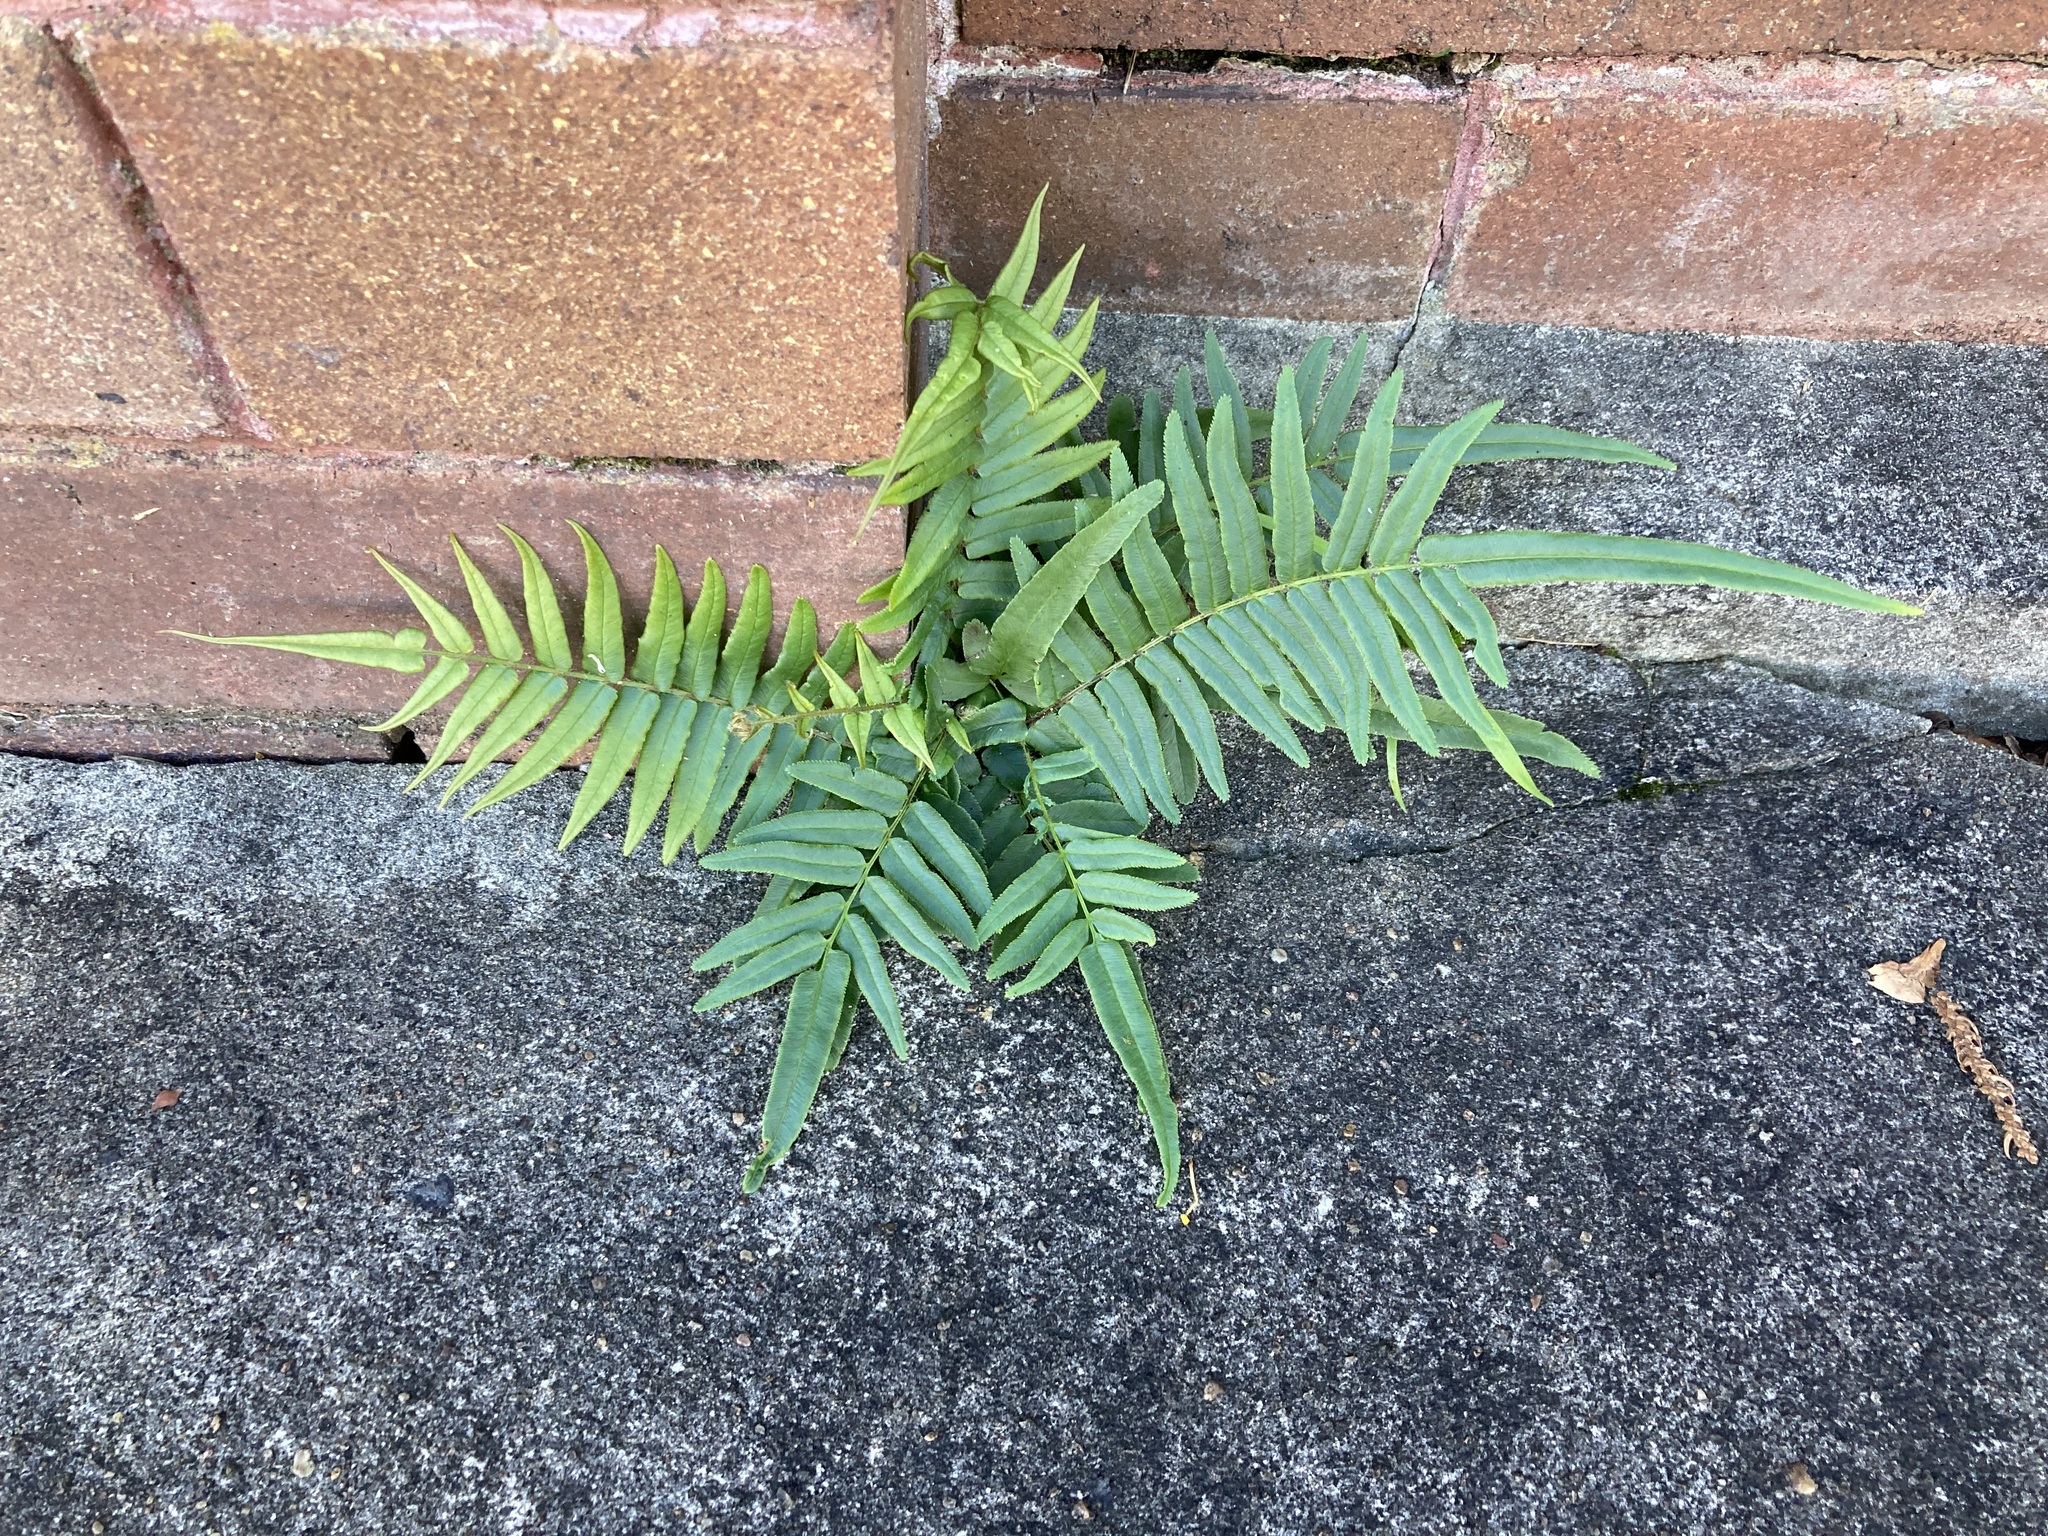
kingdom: Plantae
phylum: Tracheophyta
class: Polypodiopsida
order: Polypodiales
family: Pteridaceae
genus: Pteris
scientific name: Pteris vittata
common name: Ladder brake
